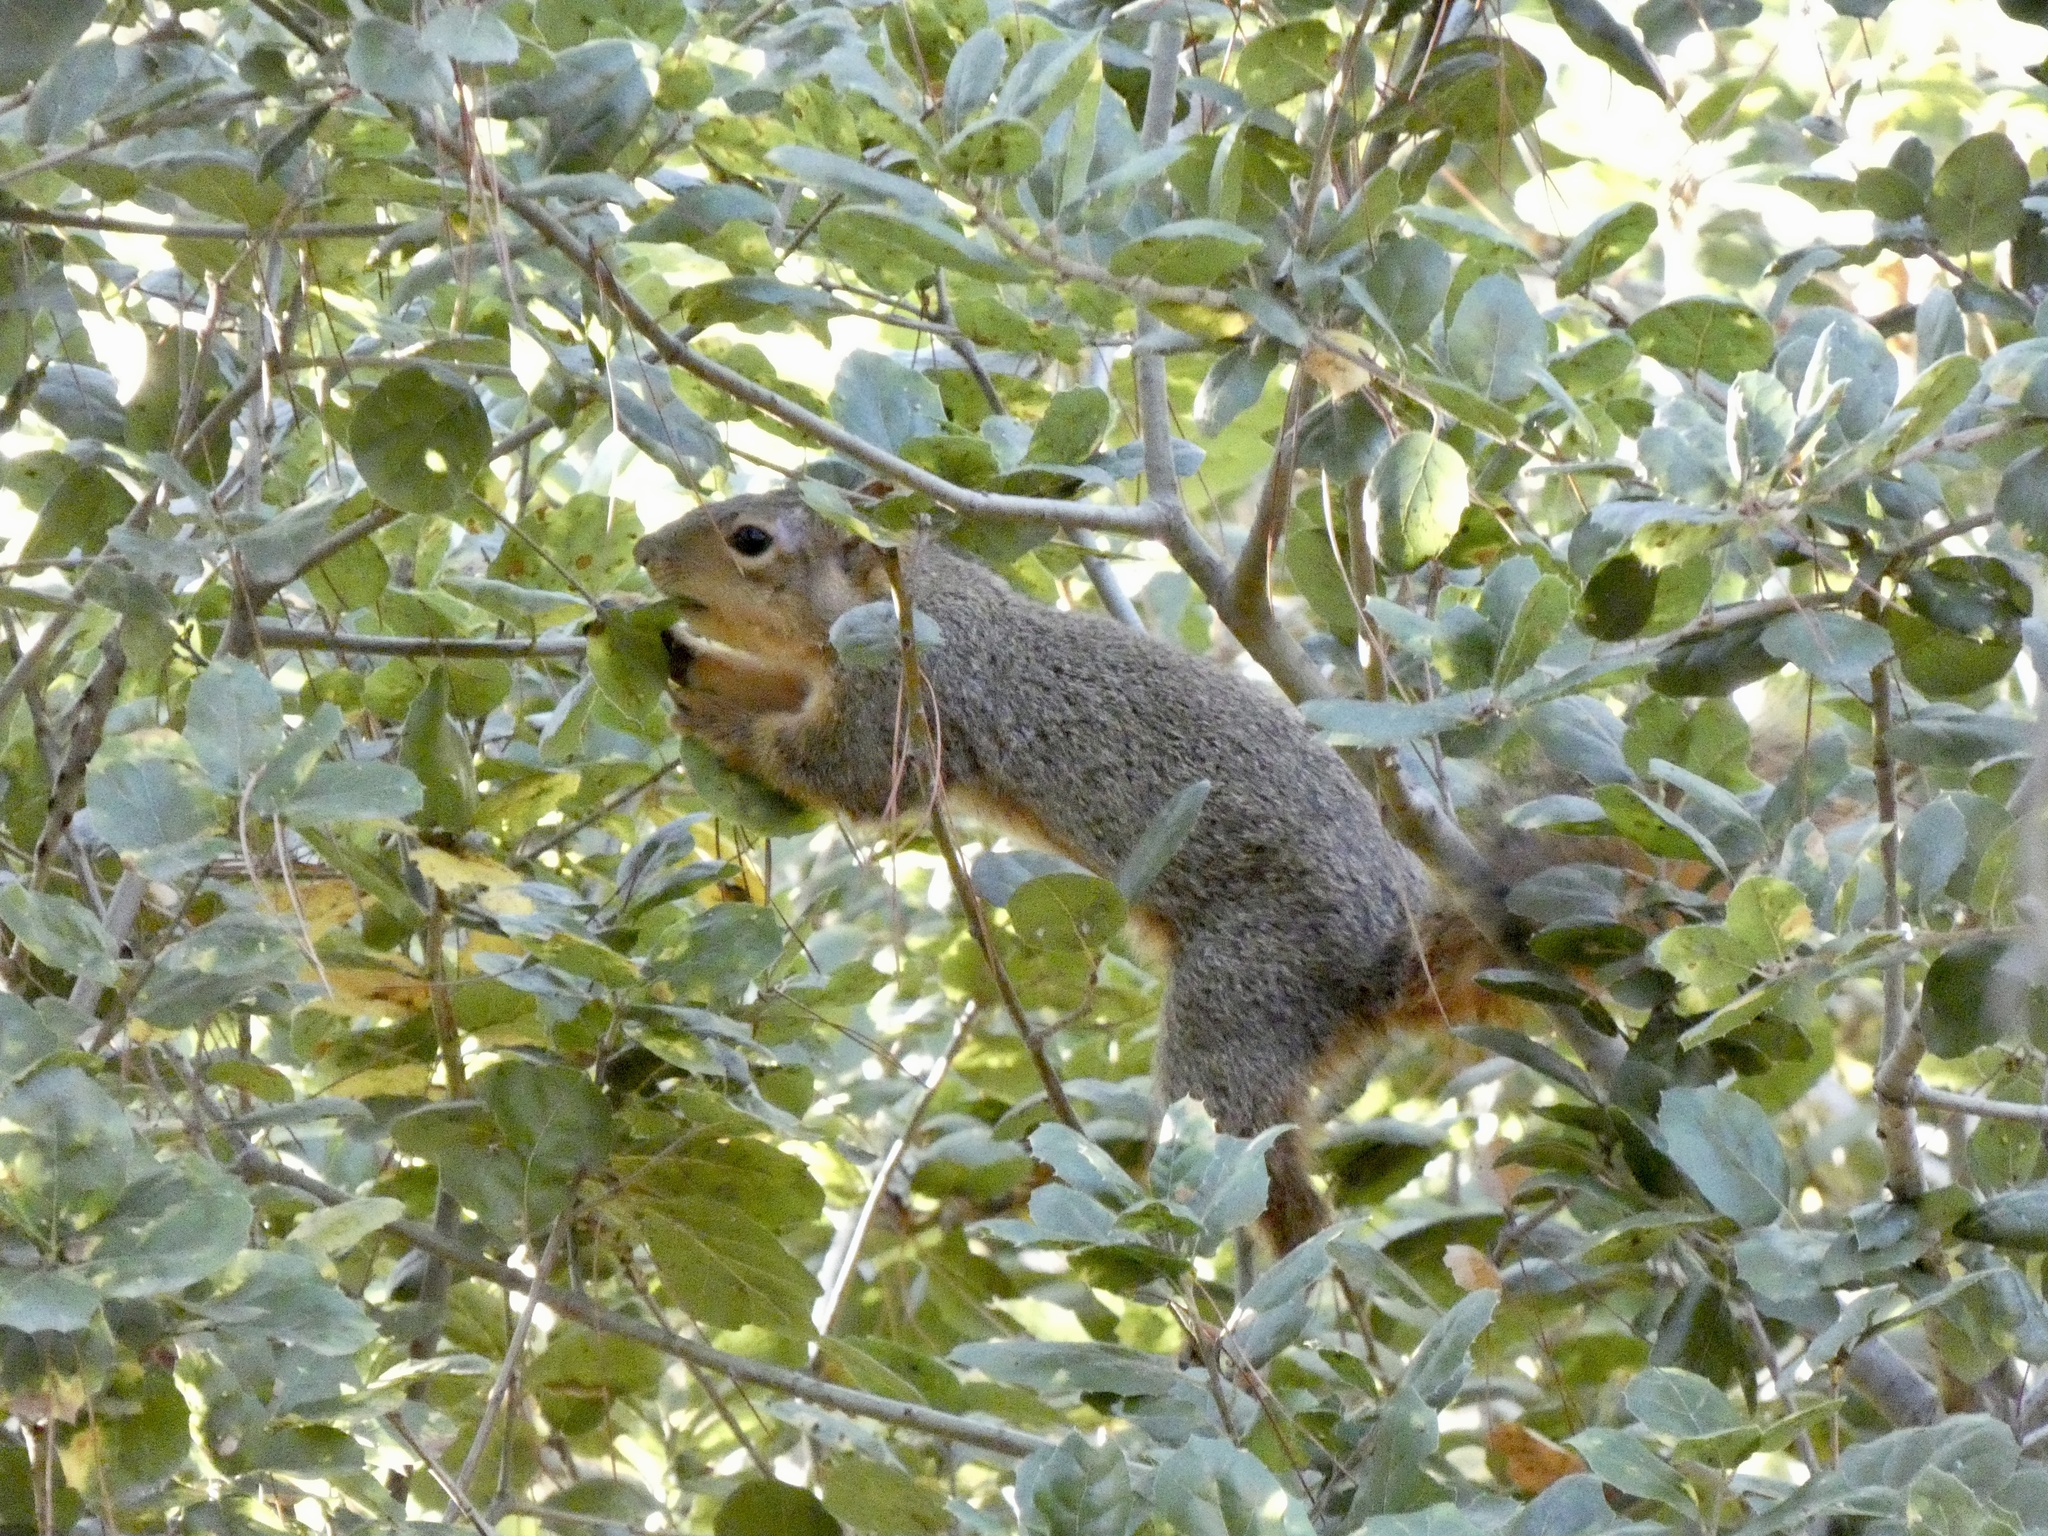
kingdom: Animalia
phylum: Chordata
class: Mammalia
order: Rodentia
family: Sciuridae
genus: Sciurus
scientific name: Sciurus niger
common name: Fox squirrel
